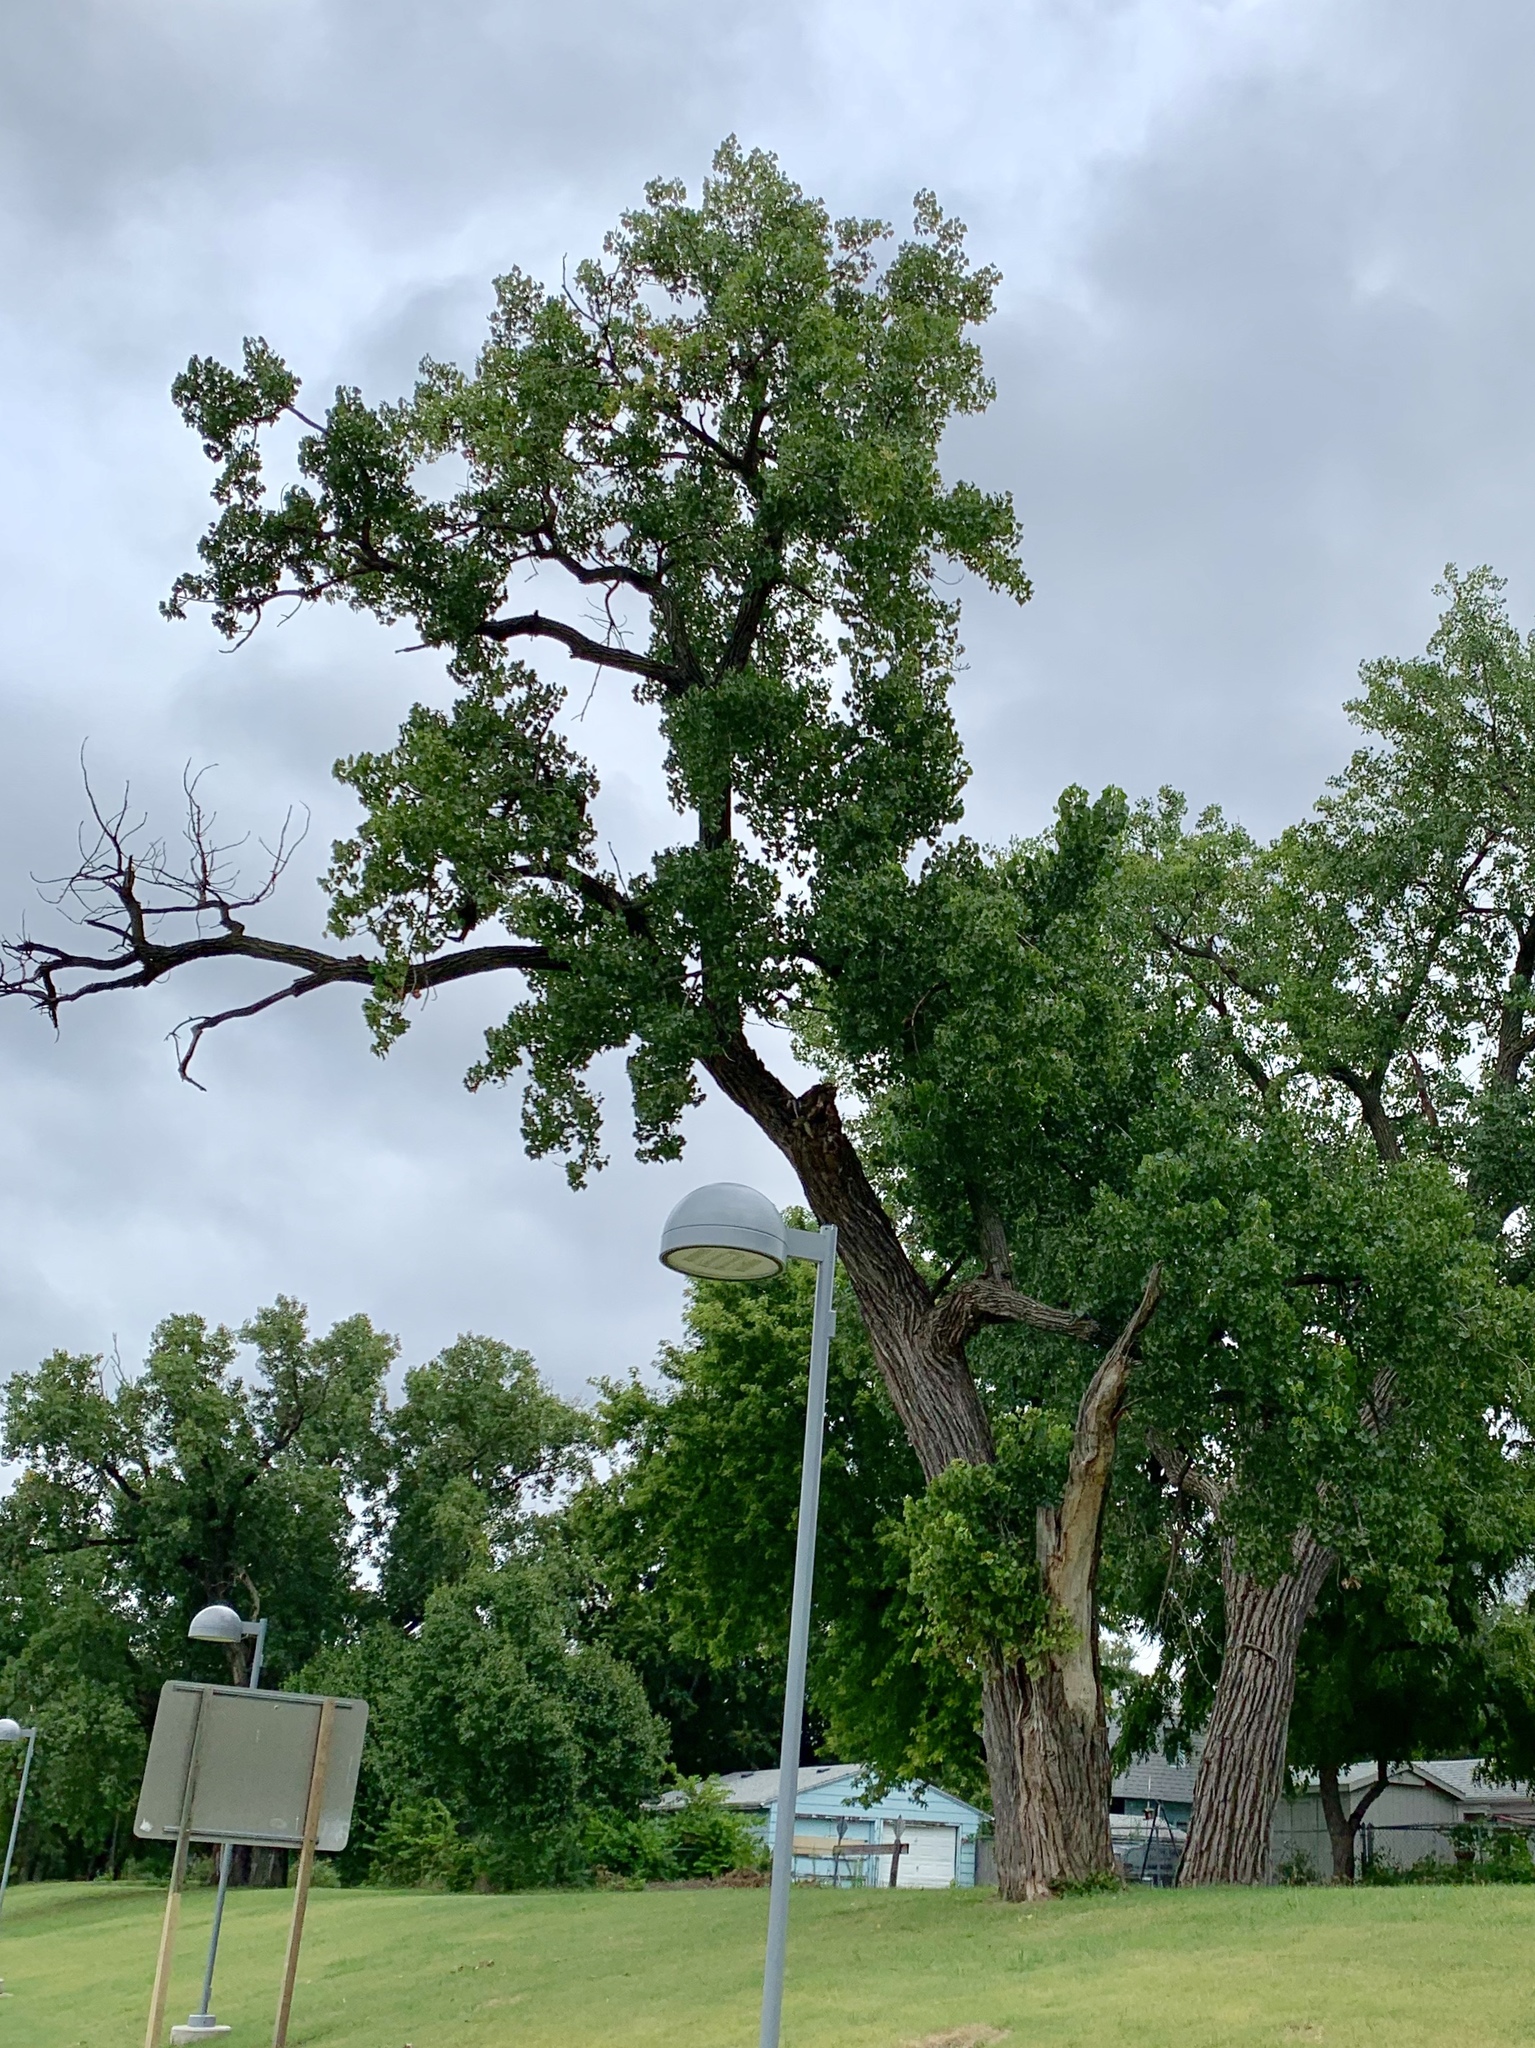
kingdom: Plantae
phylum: Tracheophyta
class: Magnoliopsida
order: Malpighiales
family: Salicaceae
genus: Populus
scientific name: Populus deltoides
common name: Eastern cottonwood
